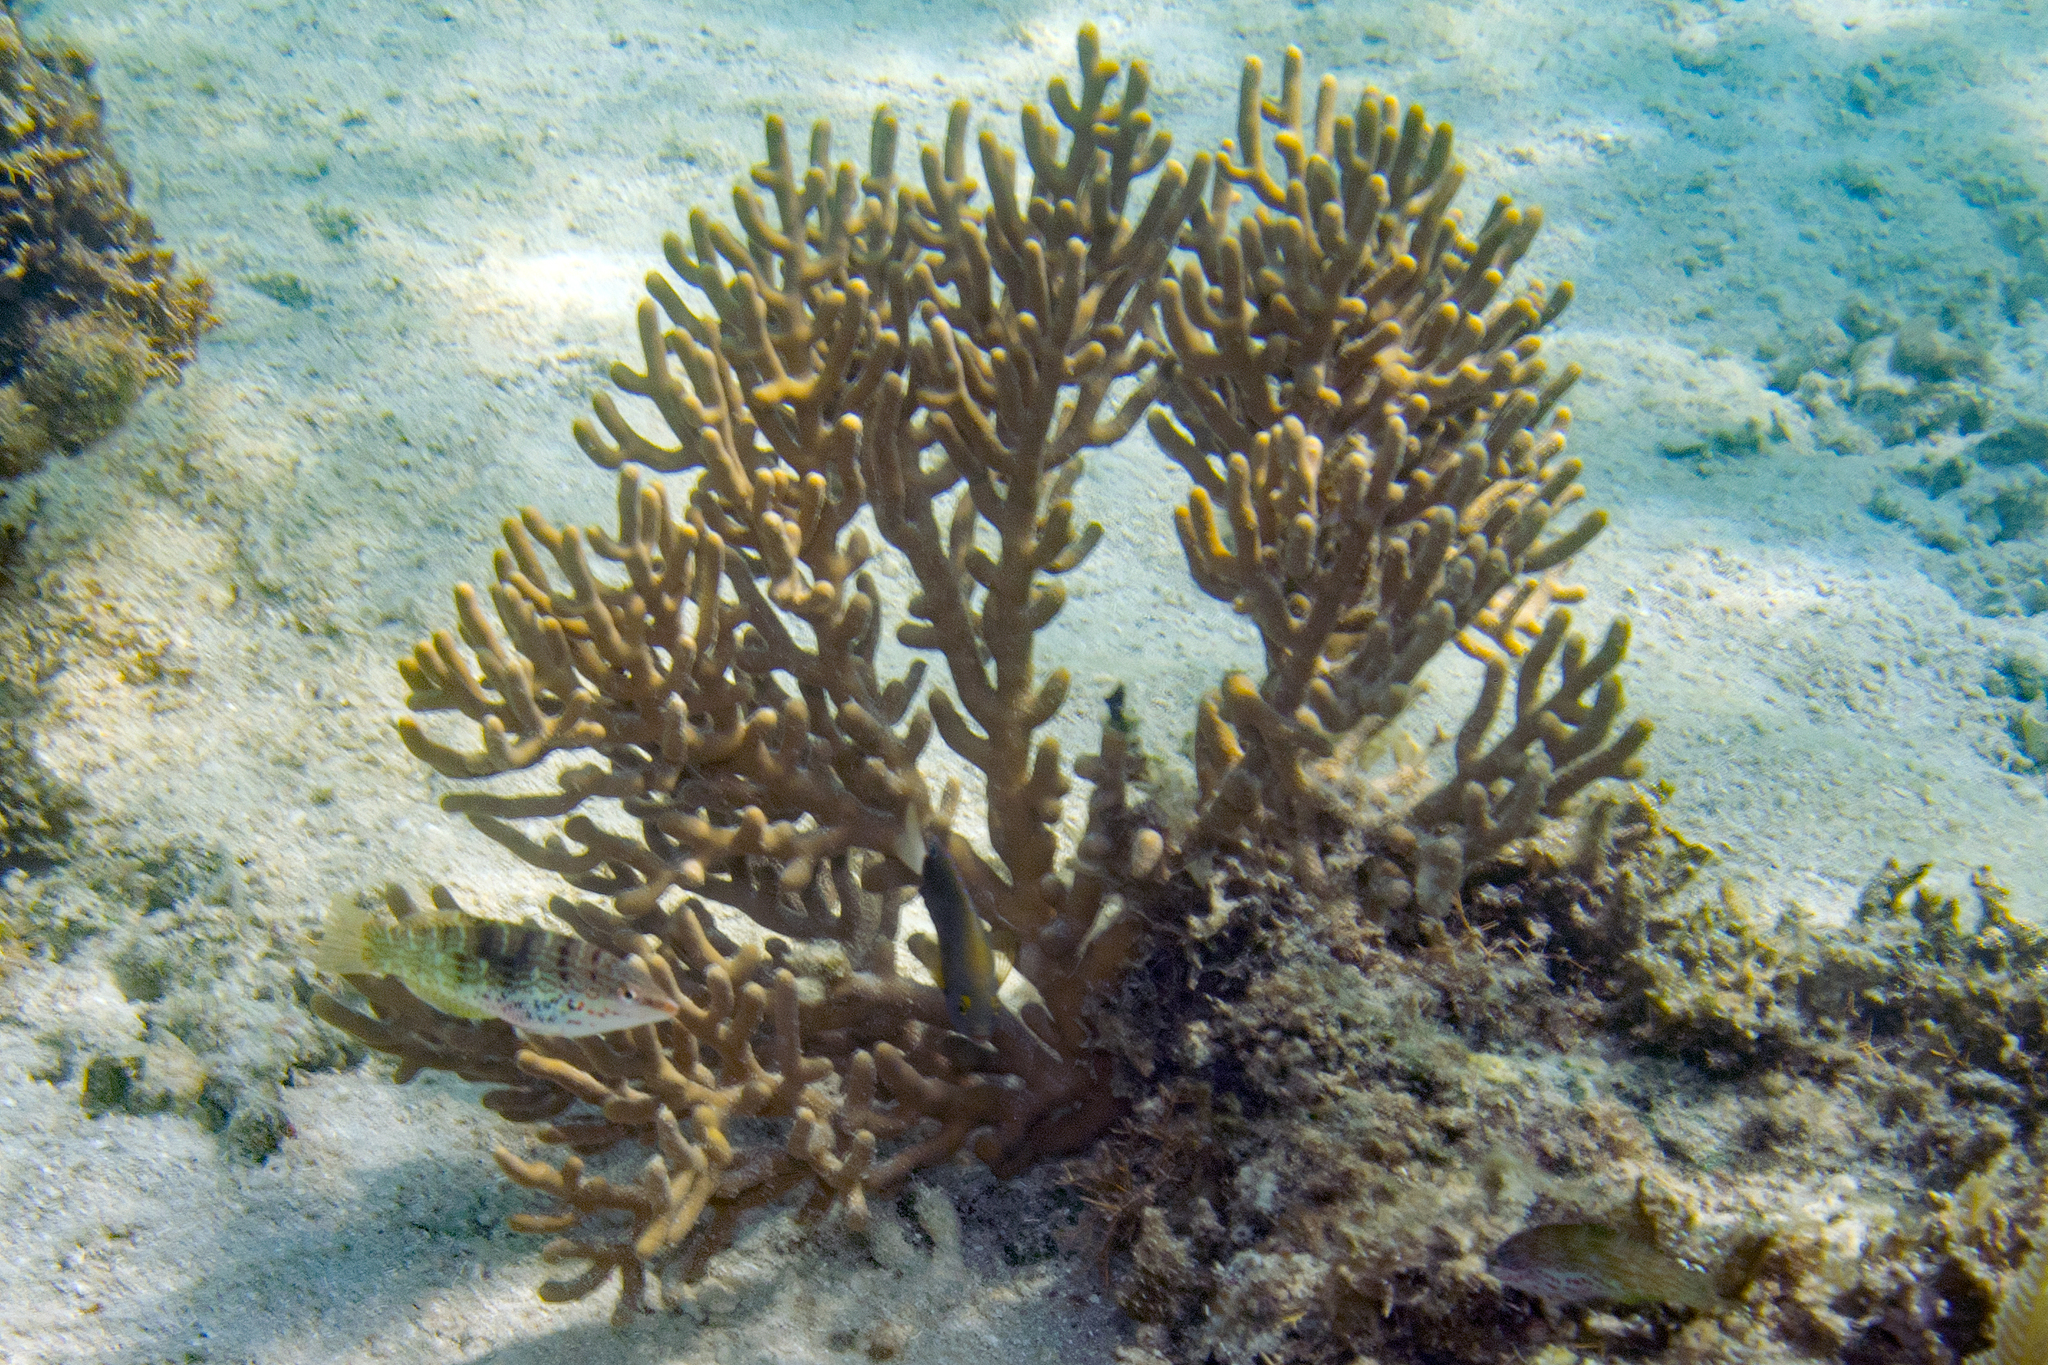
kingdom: Animalia
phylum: Cnidaria
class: Anthozoa
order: Malacalcyonacea
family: Isididae
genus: Isis
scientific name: Isis hippuris
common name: Golden sea fan
